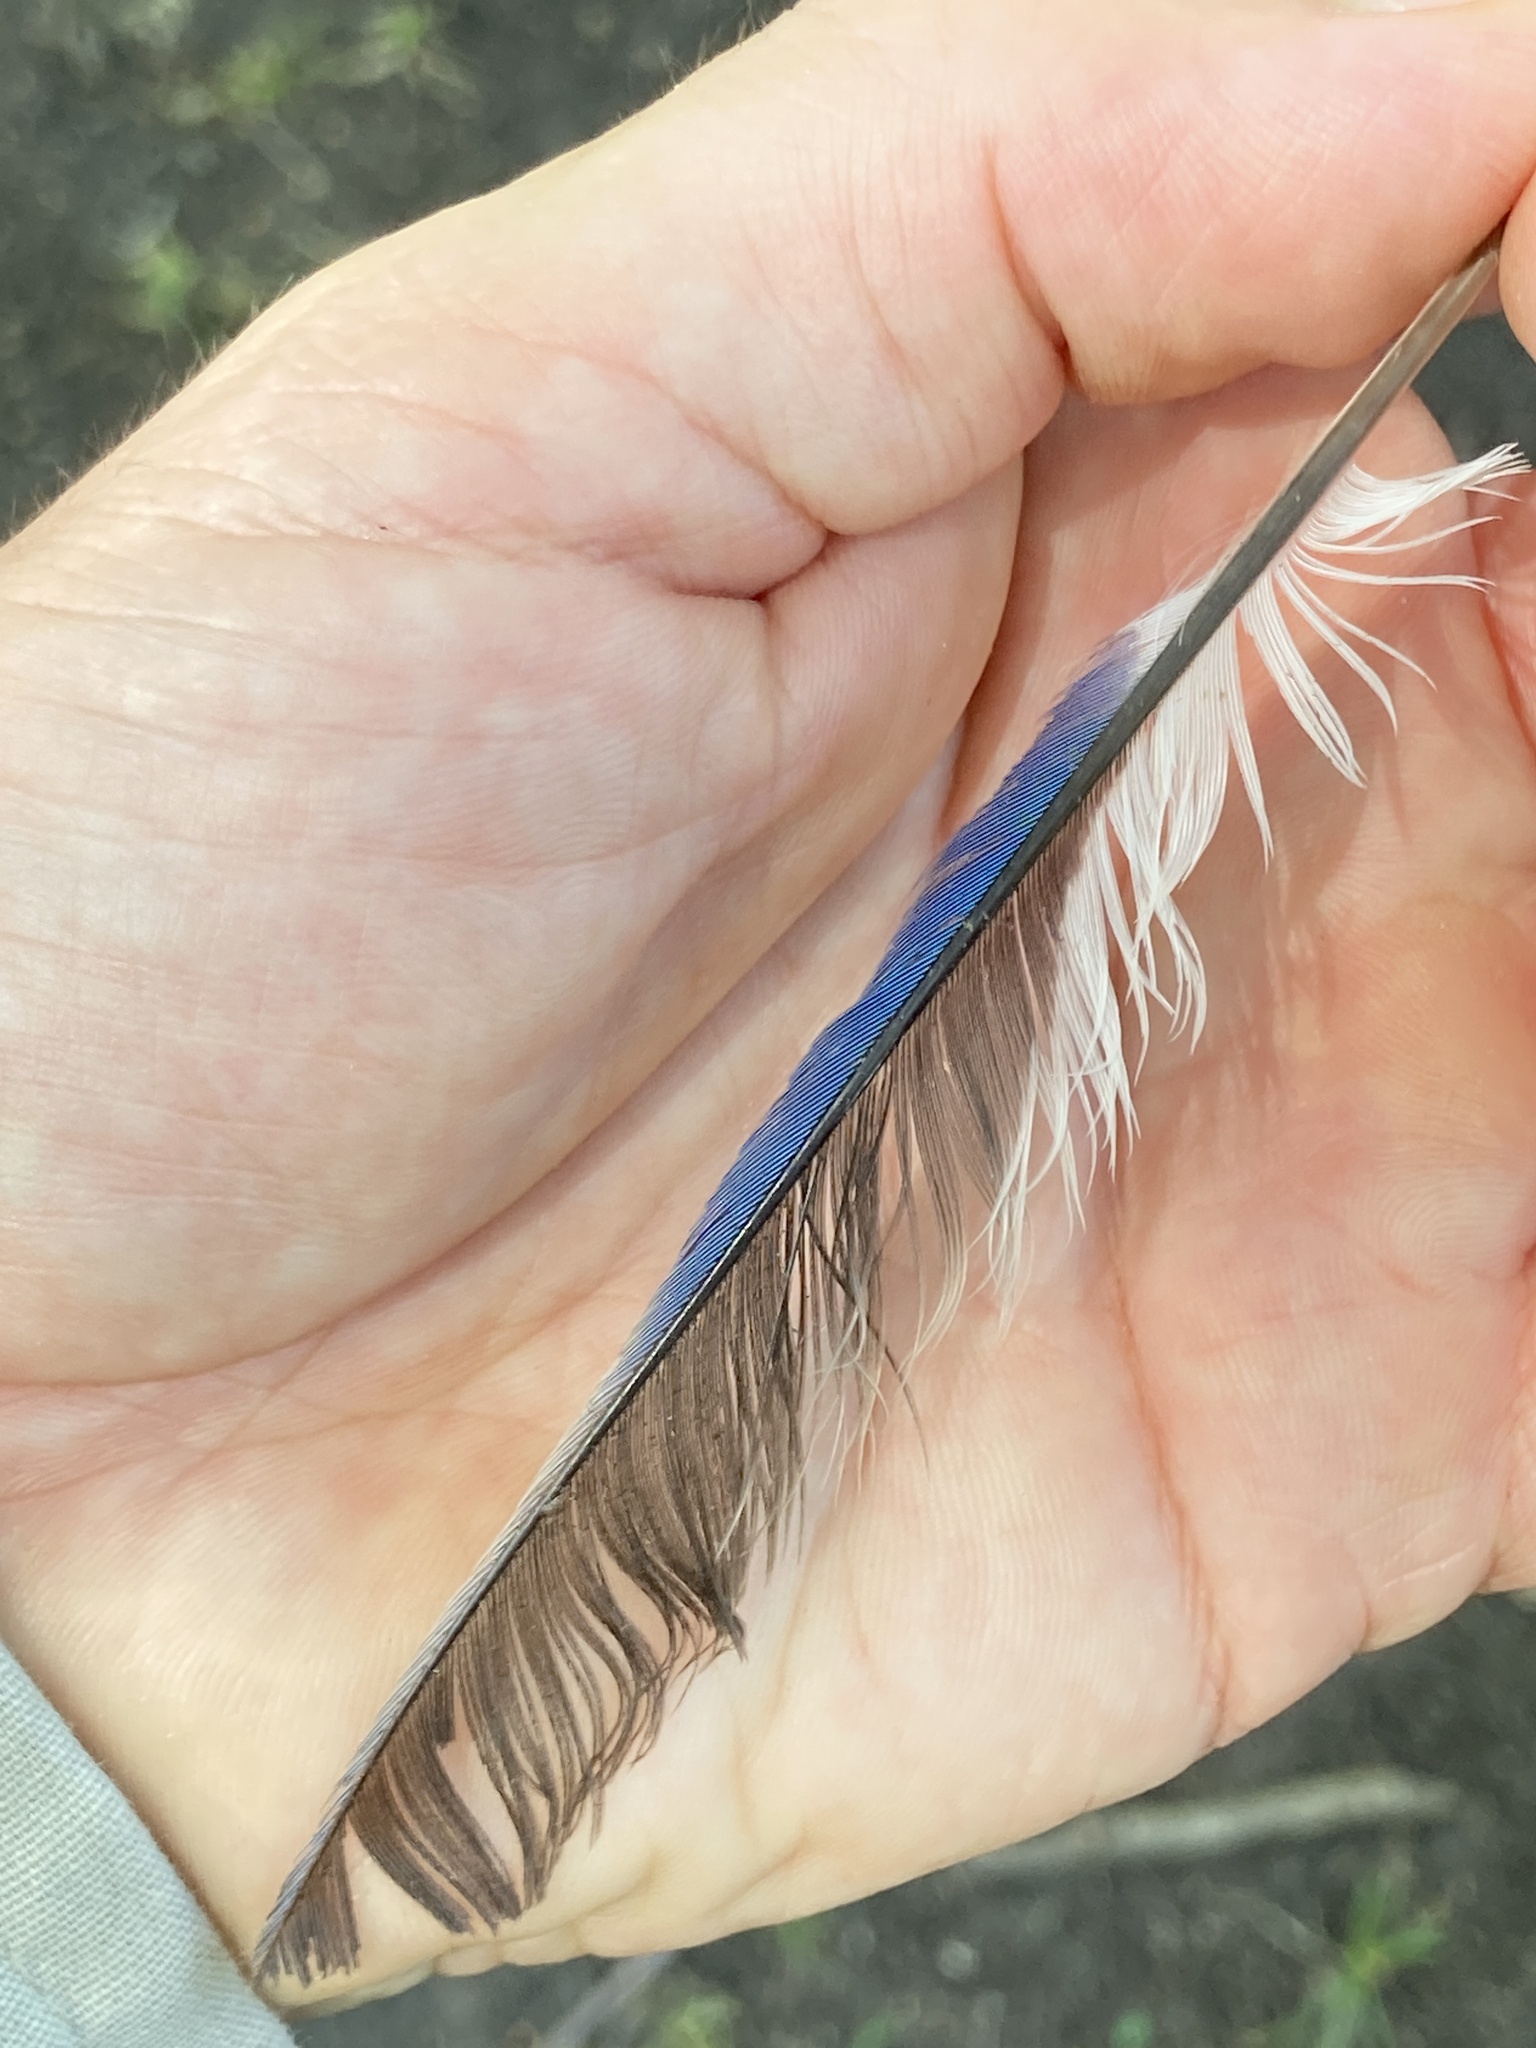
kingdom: Animalia
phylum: Chordata
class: Aves
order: Passeriformes
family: Corvidae
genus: Cyanocitta
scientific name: Cyanocitta cristata
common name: Blue jay
